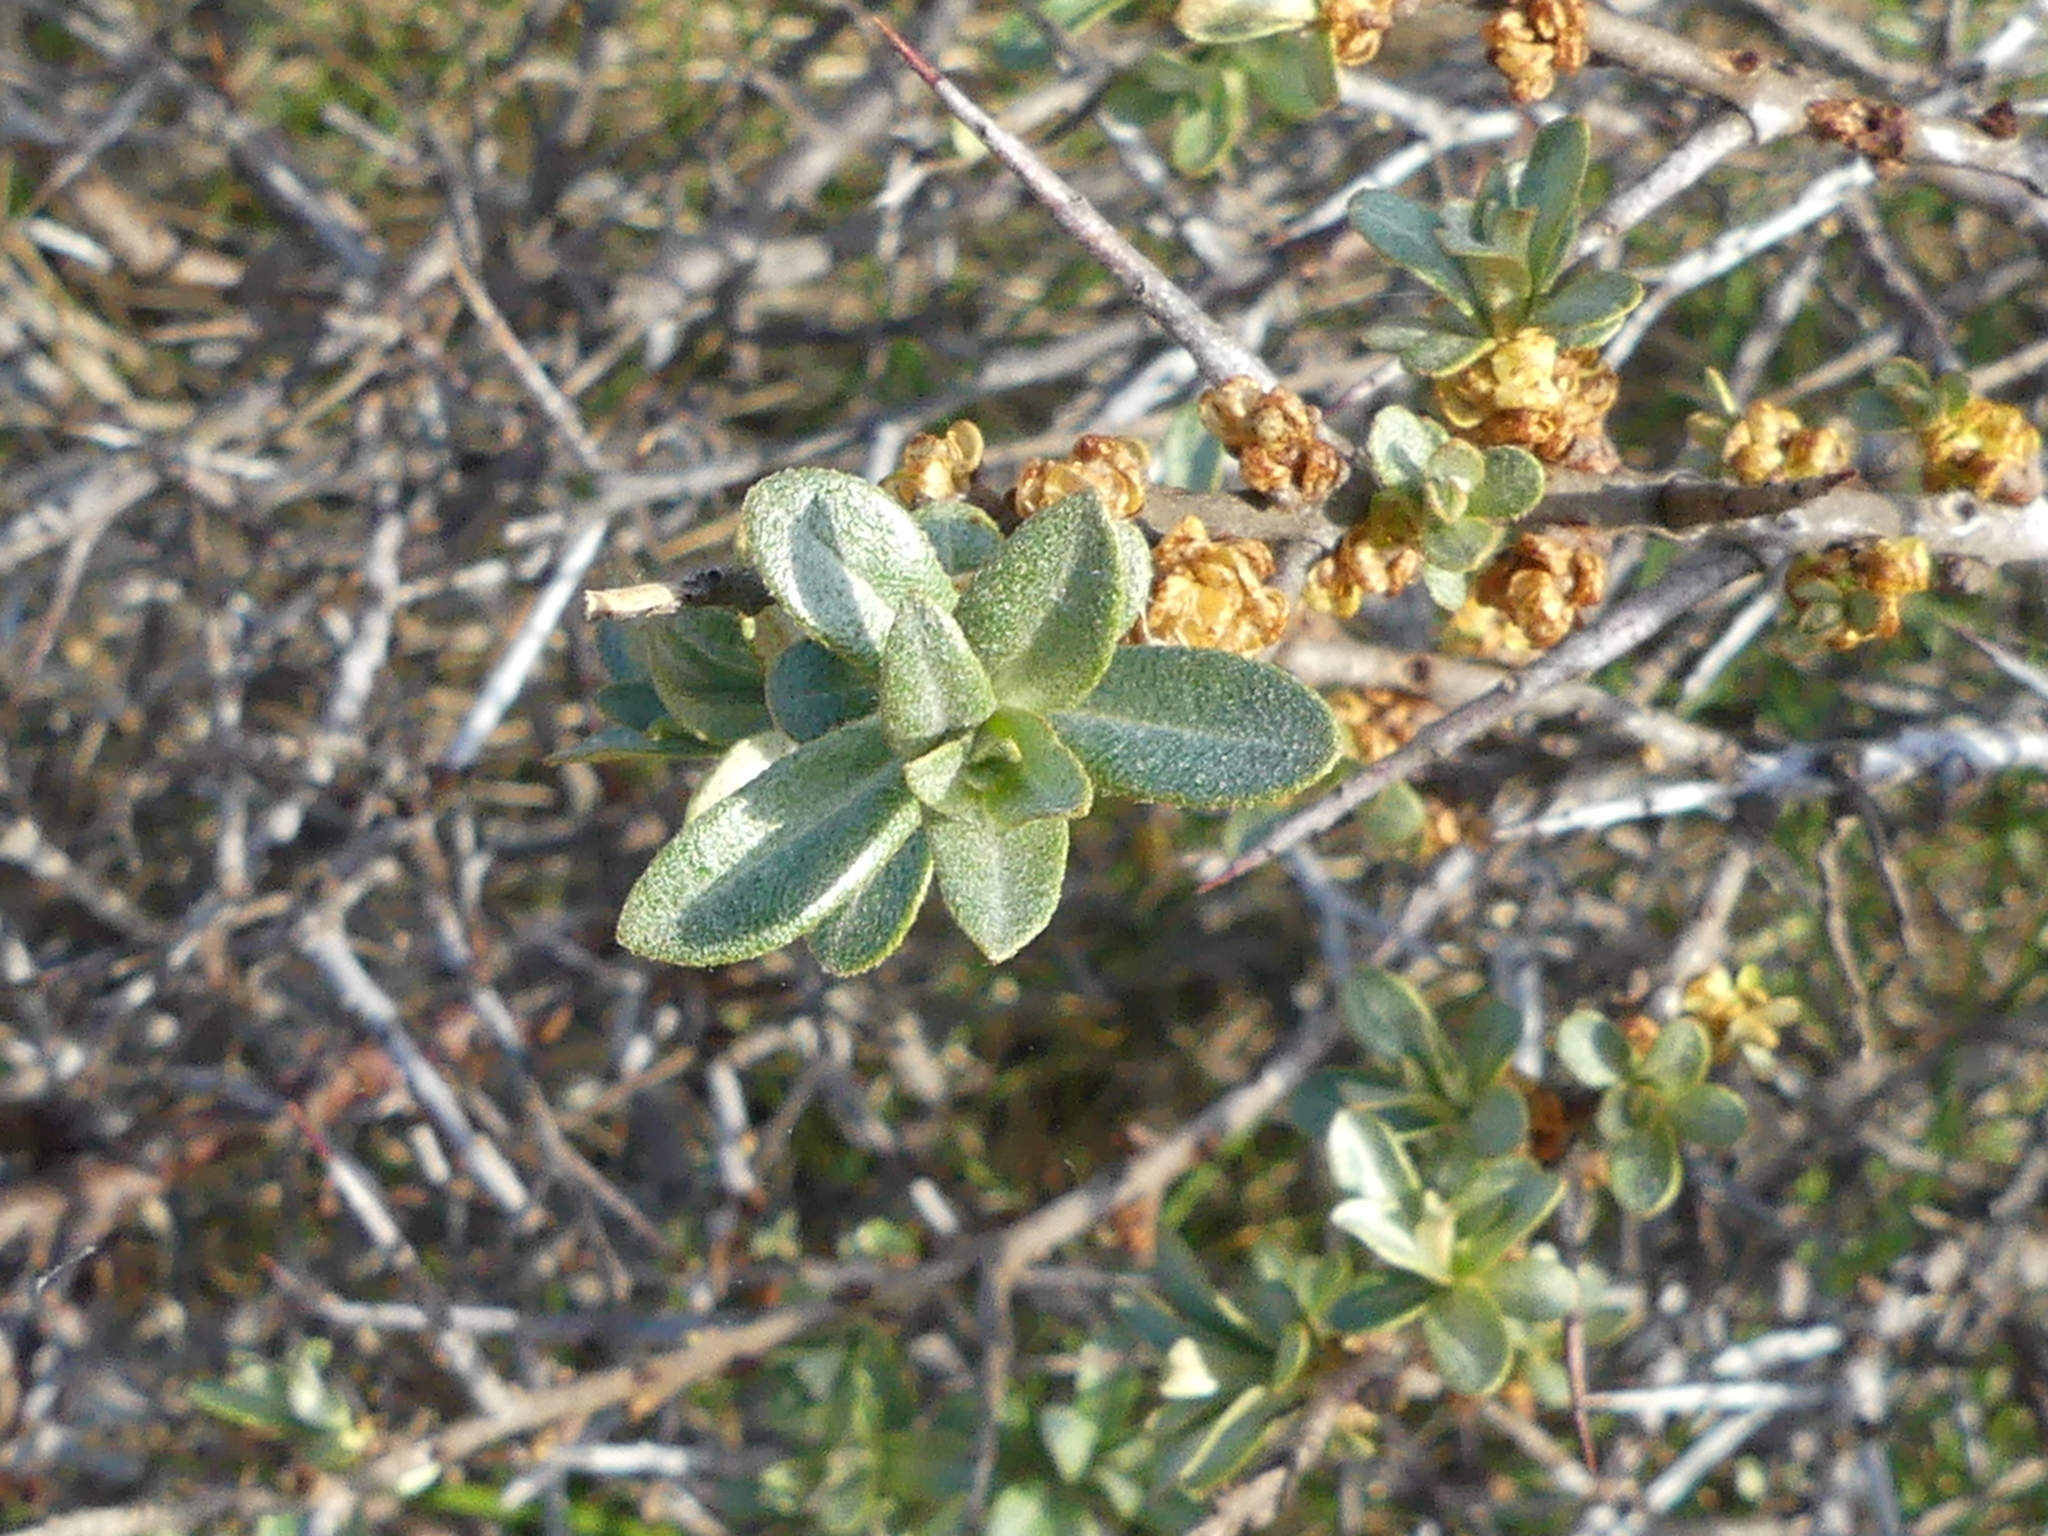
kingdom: Plantae
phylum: Tracheophyta
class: Magnoliopsida
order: Rosales
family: Elaeagnaceae
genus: Hippophae
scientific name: Hippophae rhamnoides
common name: Sea-buckthorn
